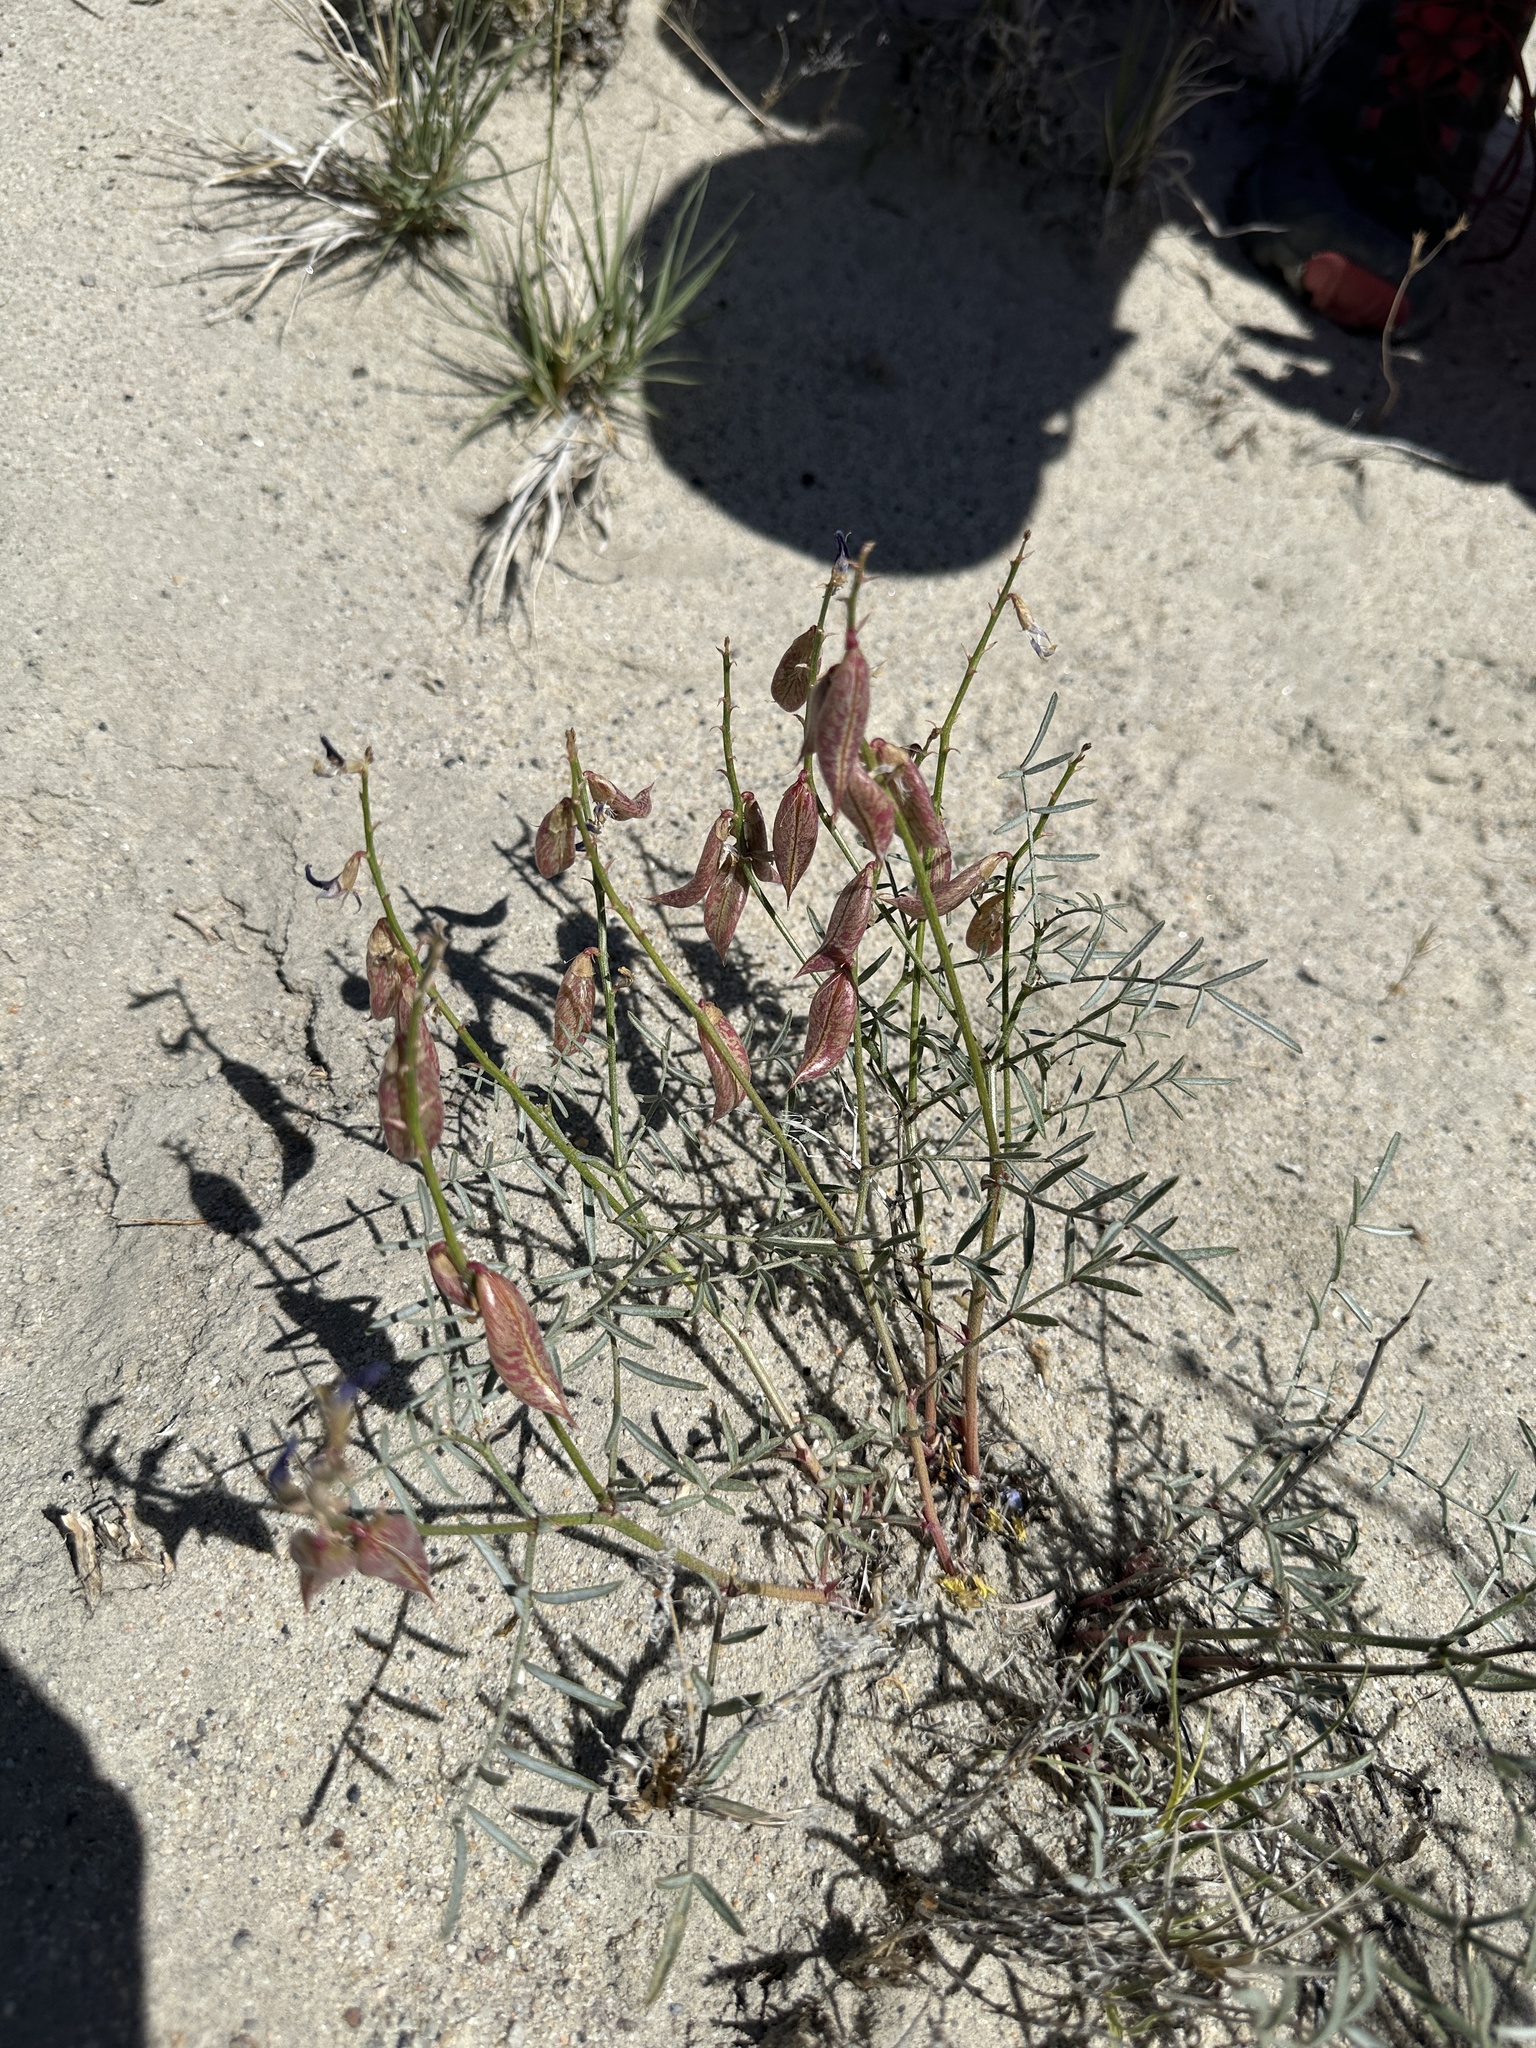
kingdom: Plantae
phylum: Tracheophyta
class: Magnoliopsida
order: Fabales
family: Fabaceae
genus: Astragalus
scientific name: Astragalus casei
